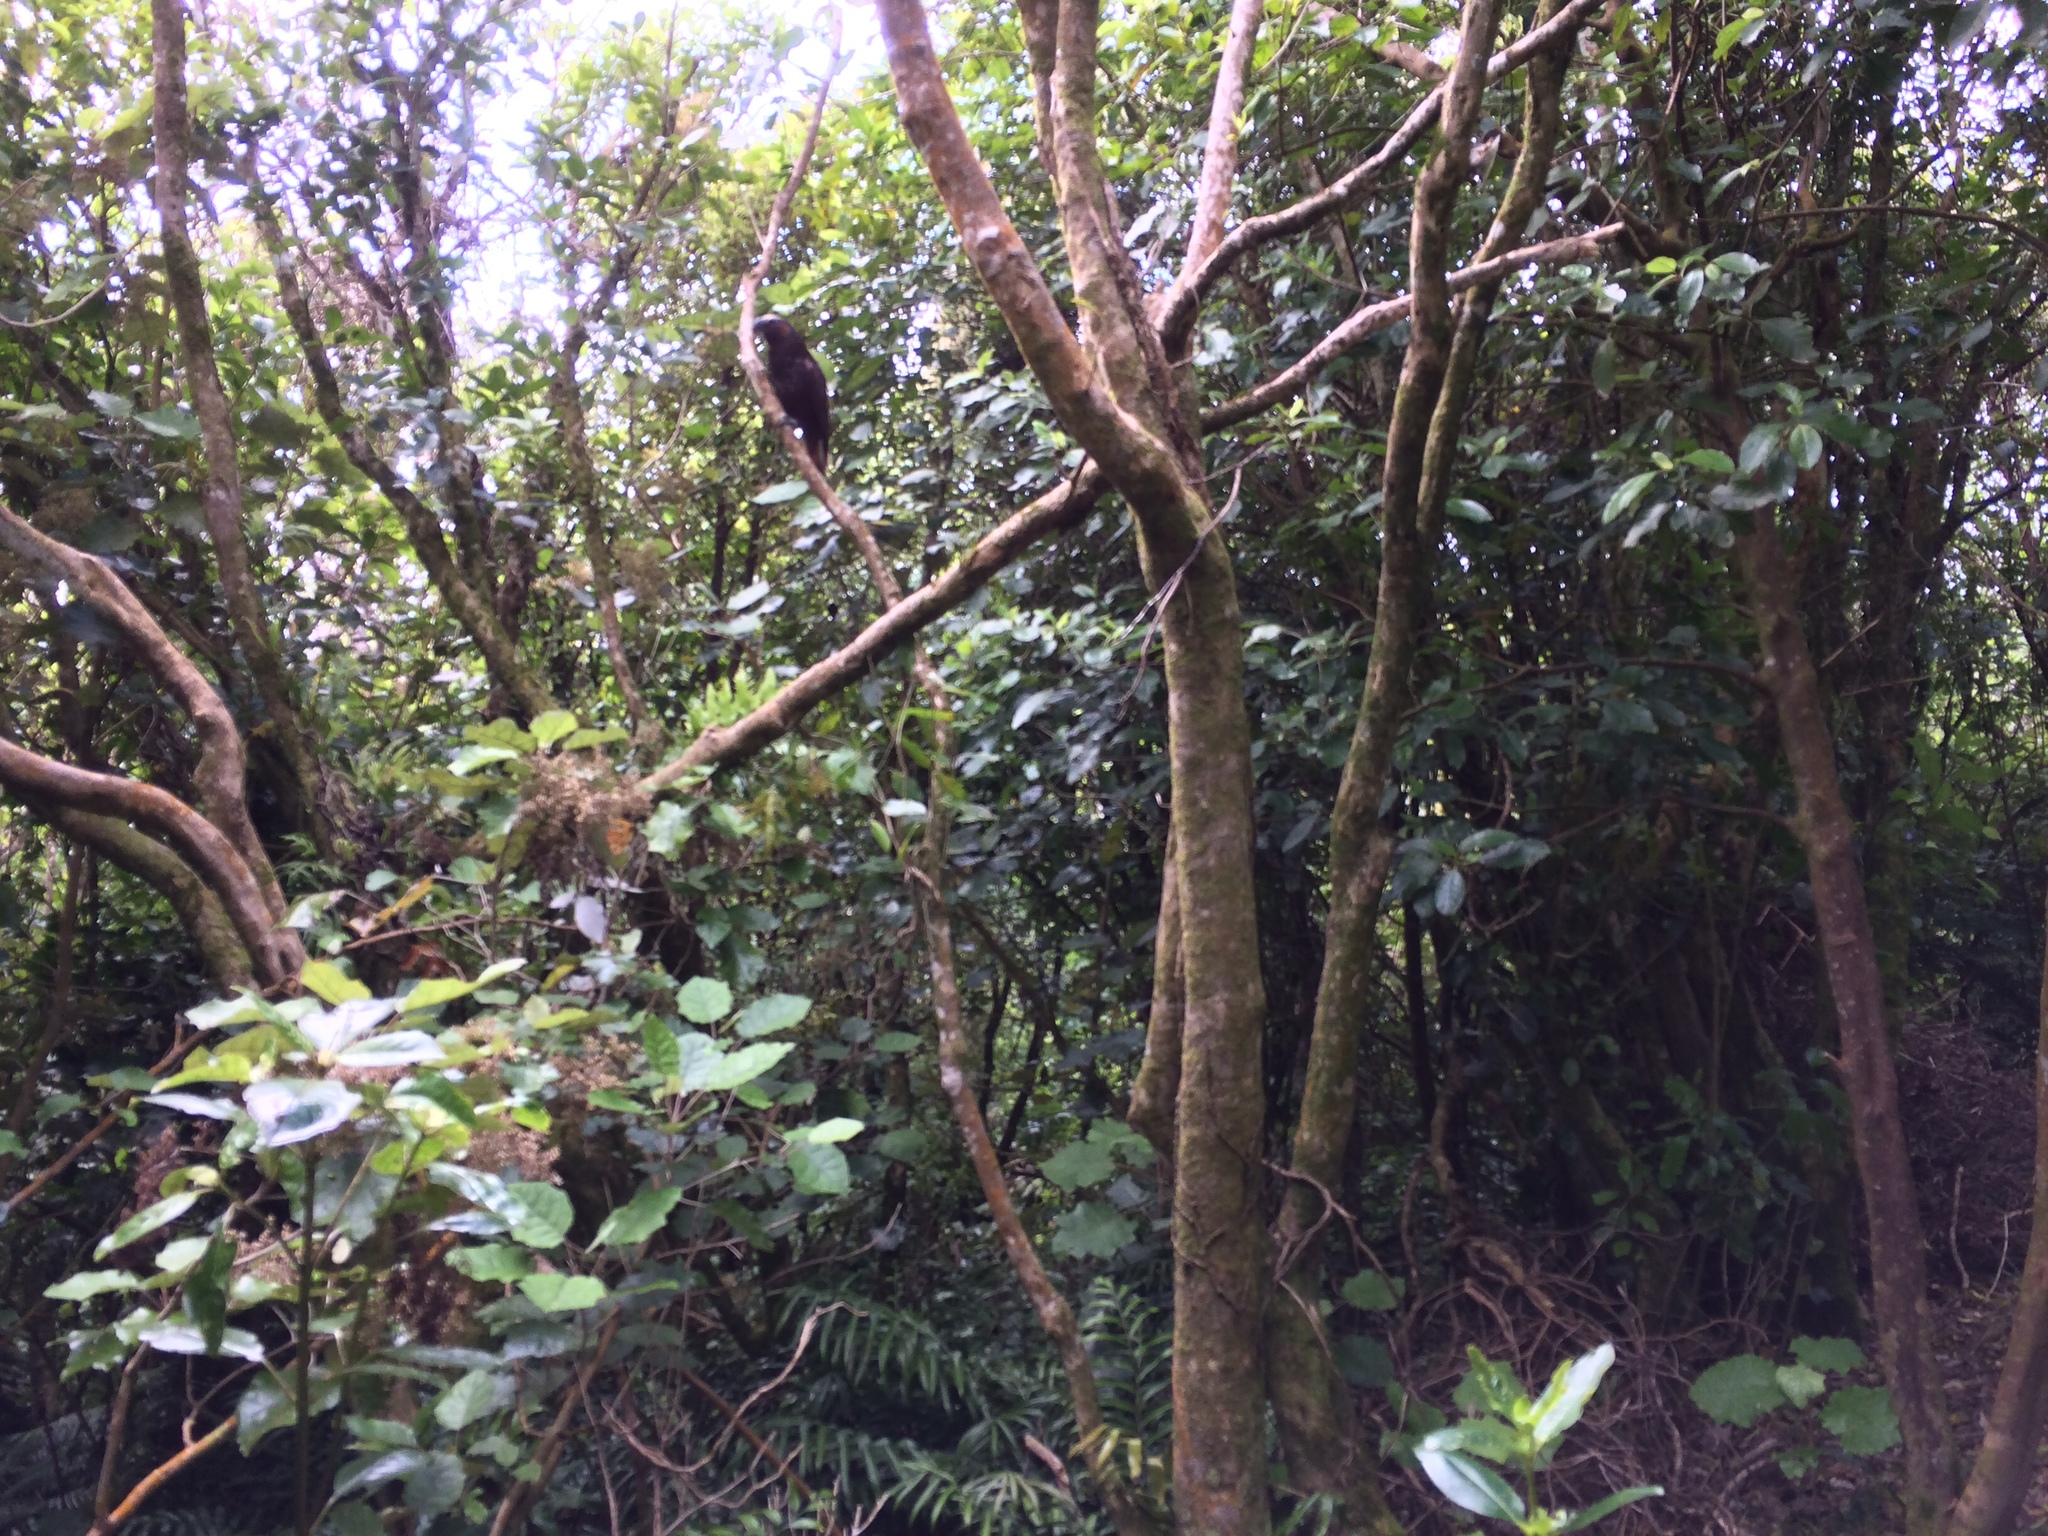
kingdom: Animalia
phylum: Chordata
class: Aves
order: Psittaciformes
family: Psittacidae
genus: Nestor
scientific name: Nestor meridionalis
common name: New zealand kaka
